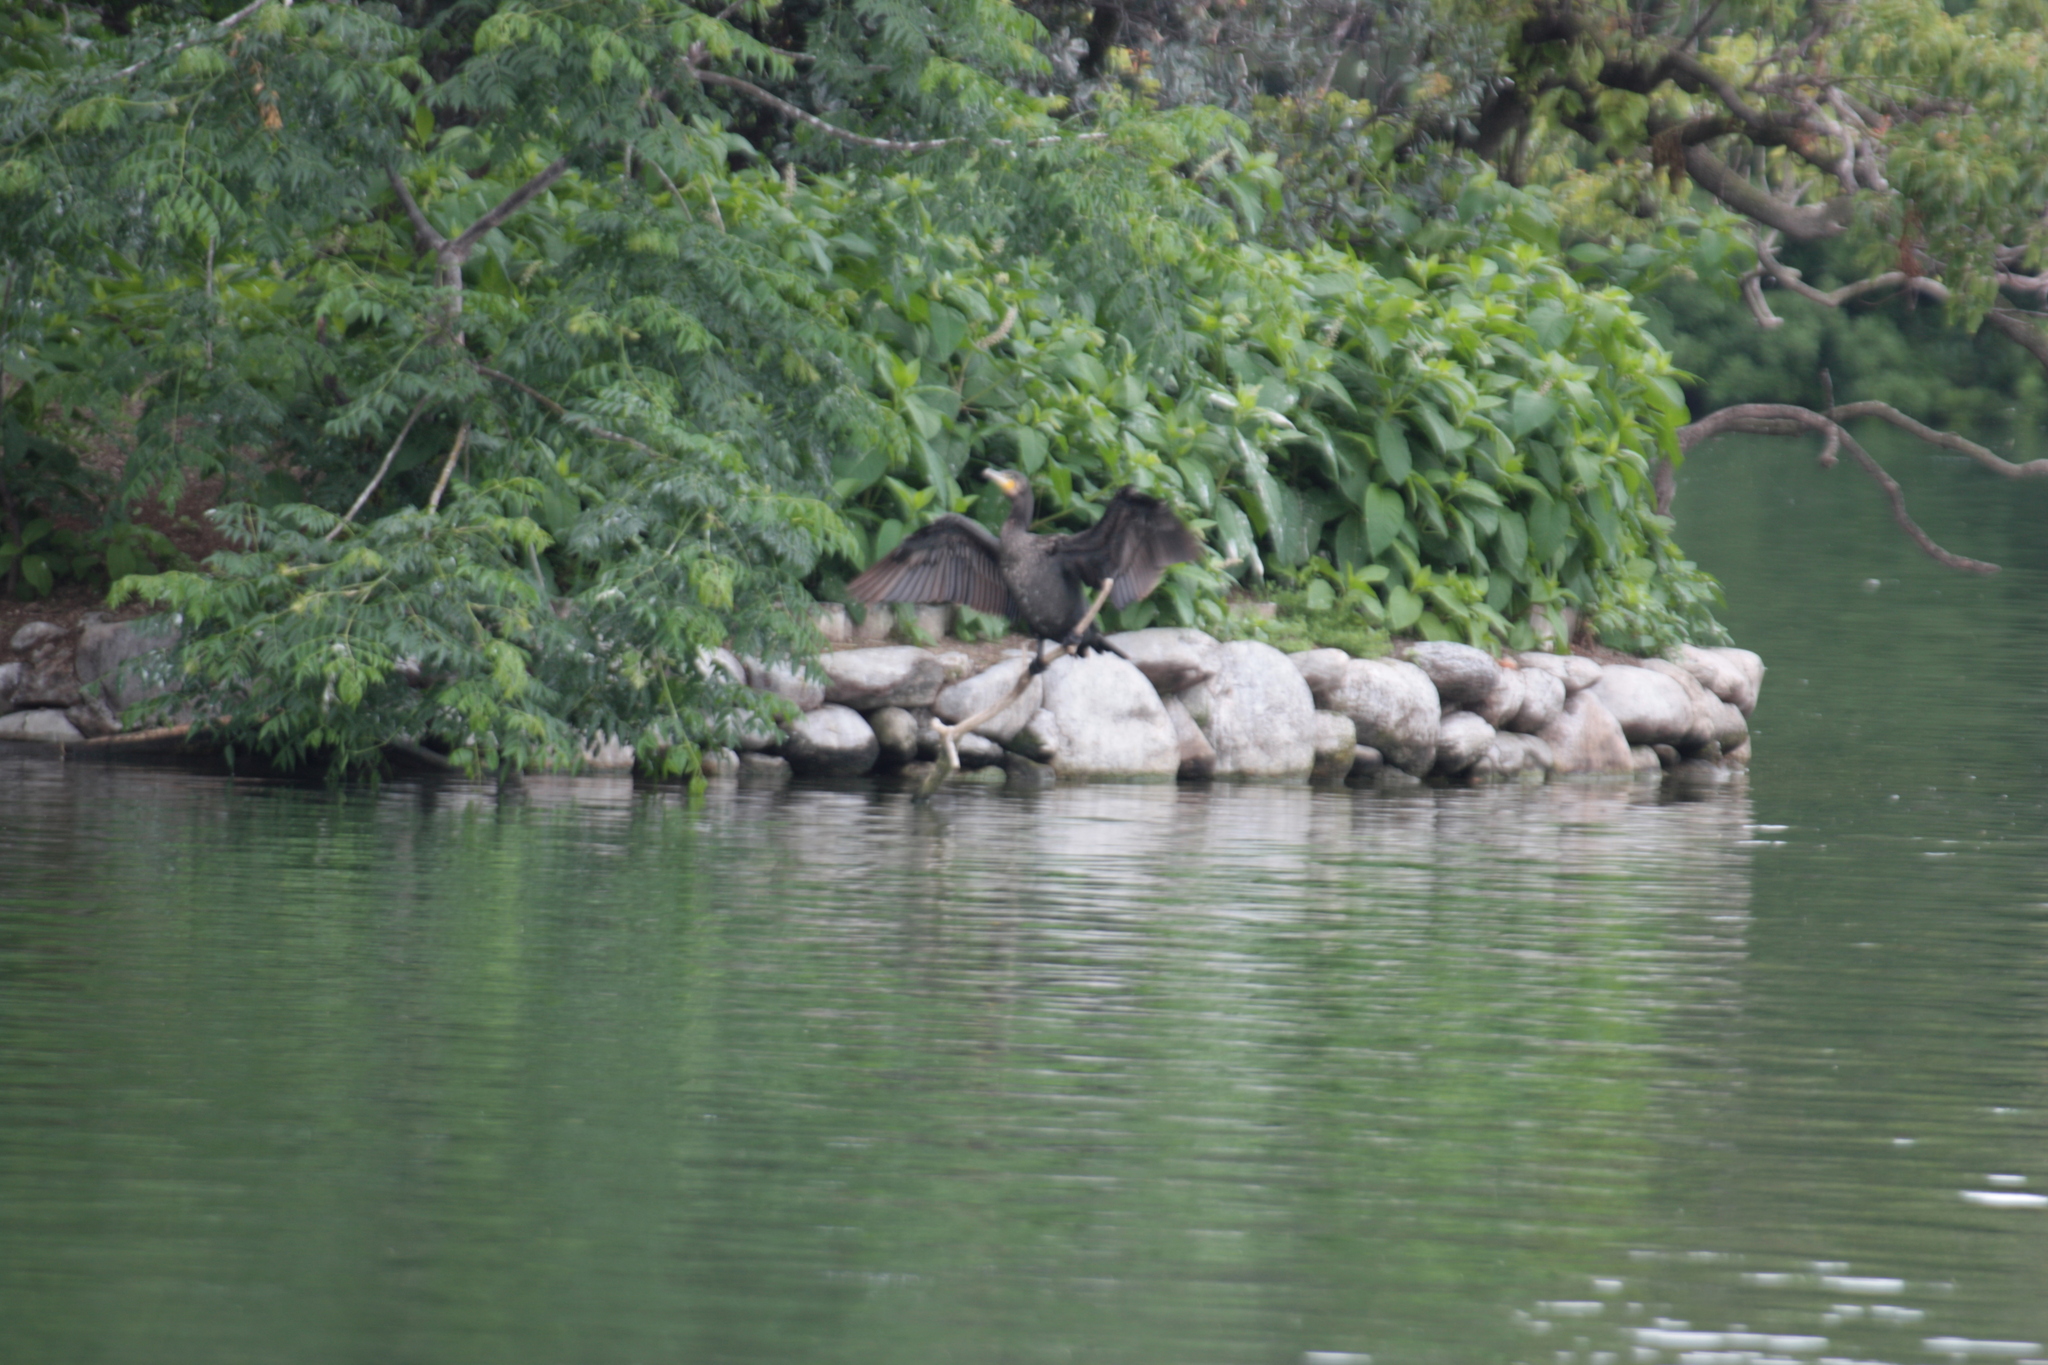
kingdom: Animalia
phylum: Chordata
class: Aves
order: Suliformes
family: Phalacrocoracidae
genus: Phalacrocorax
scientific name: Phalacrocorax carbo
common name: Great cormorant
